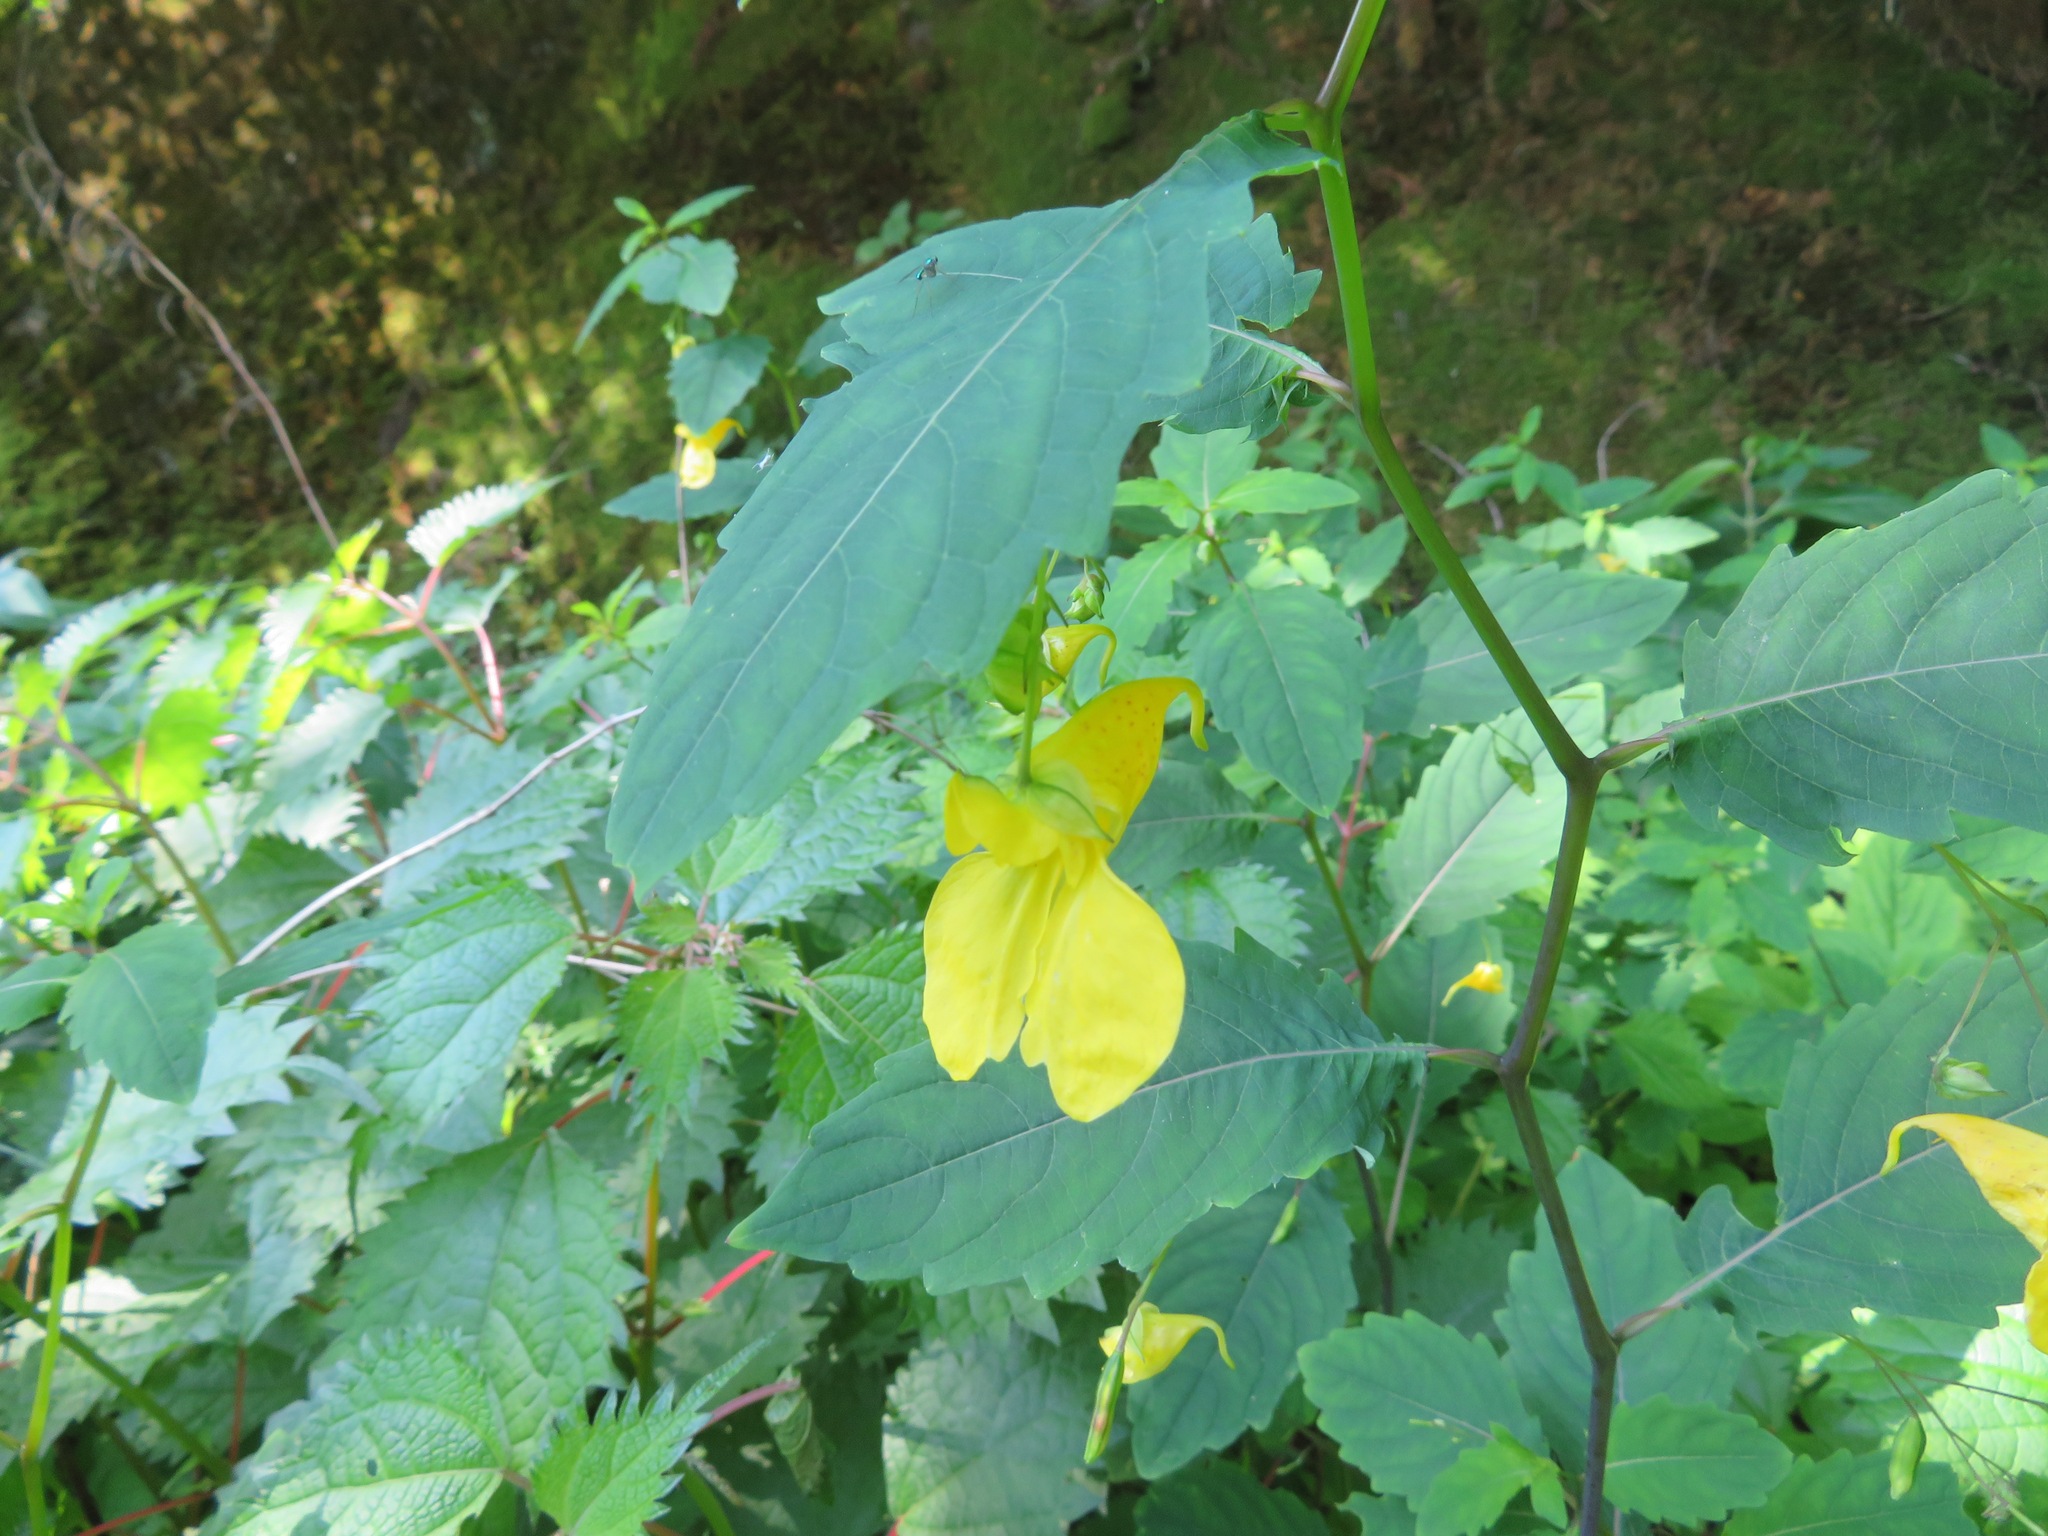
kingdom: Plantae
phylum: Tracheophyta
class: Magnoliopsida
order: Ericales
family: Balsaminaceae
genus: Impatiens
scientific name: Impatiens noli-tangere
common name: Touch-me-not balsam
